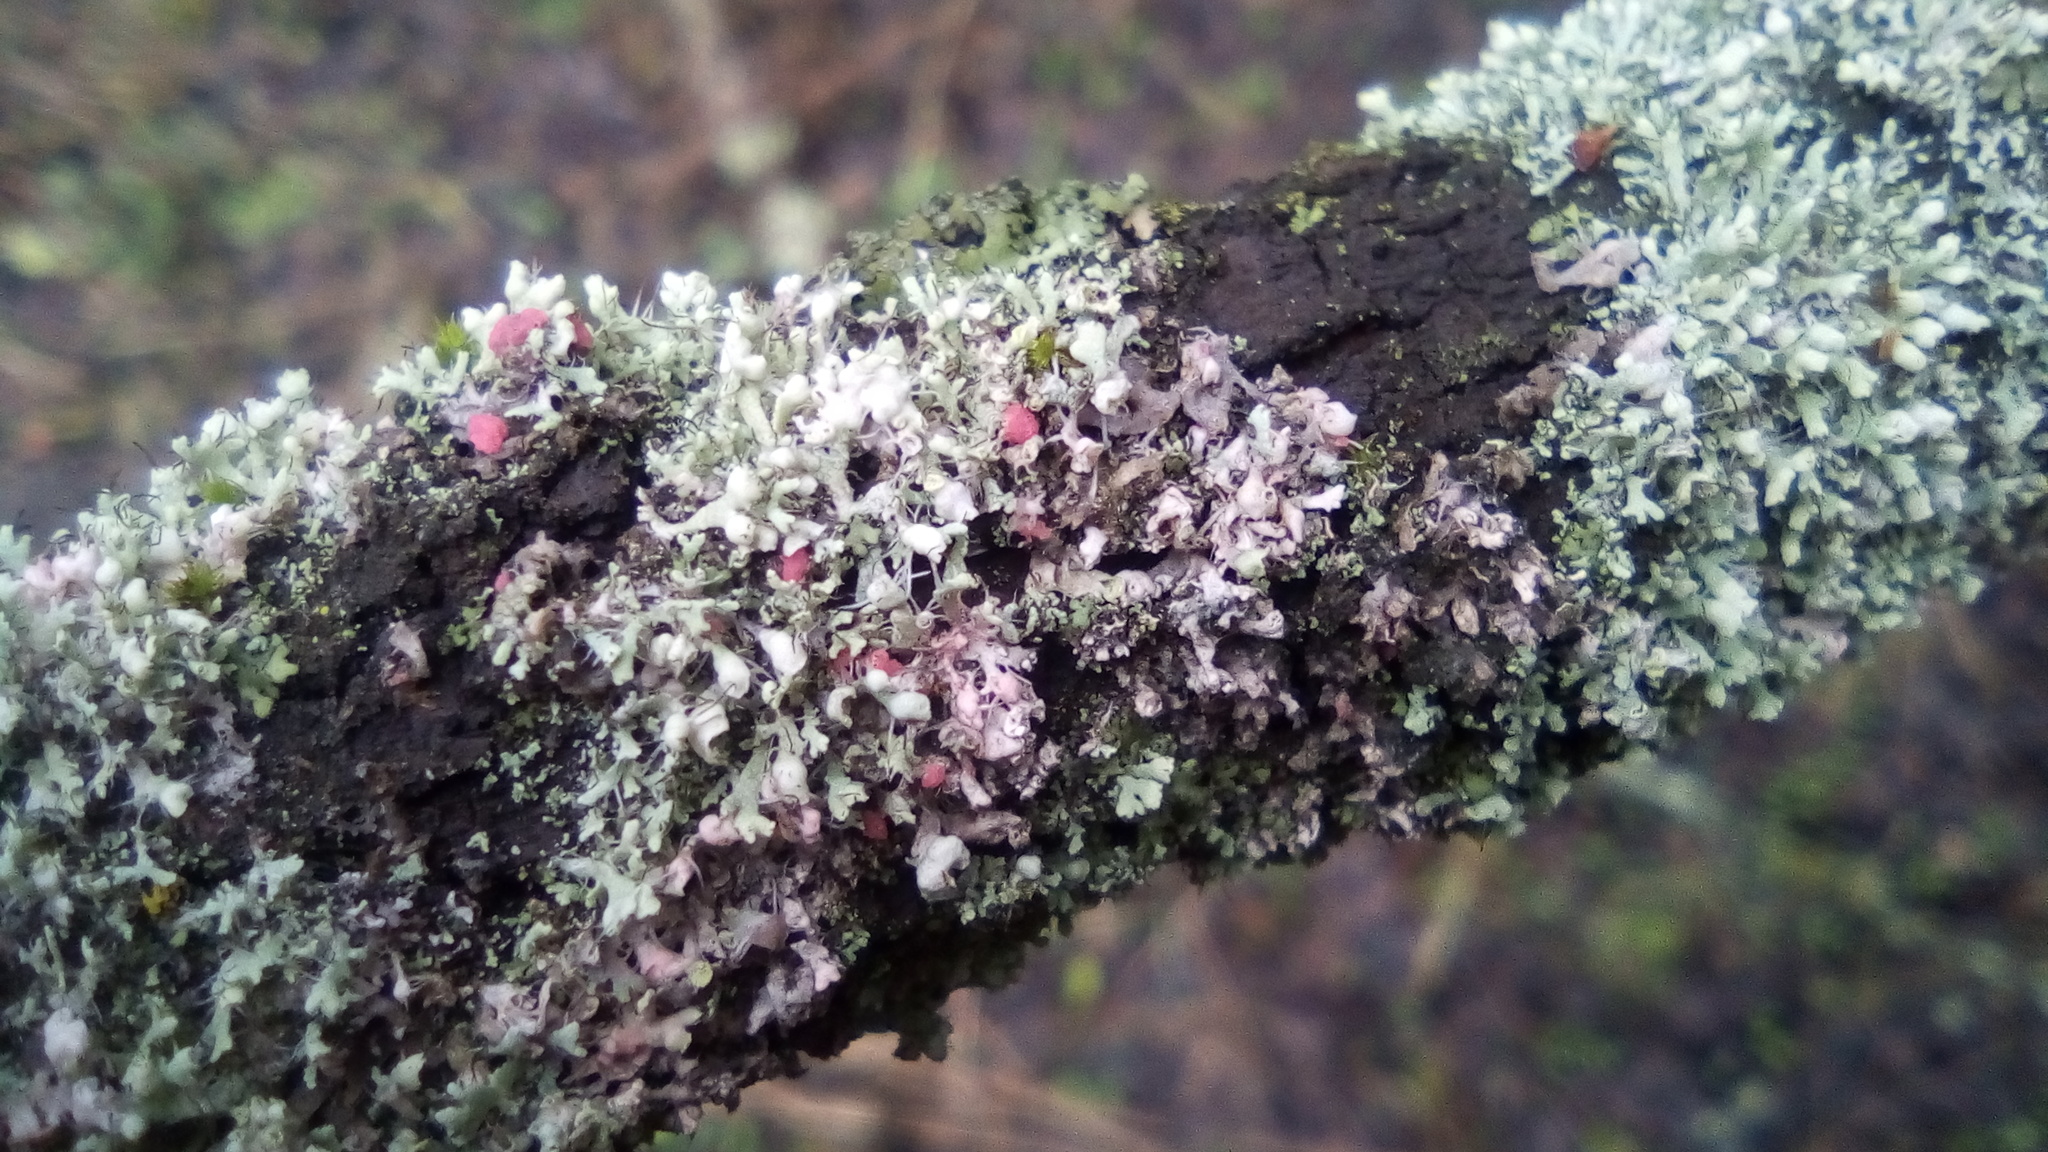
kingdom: Fungi
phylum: Ascomycota
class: Sordariomycetes
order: Hypocreales
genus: Illosporiopsis
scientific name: Illosporiopsis christiansenii
